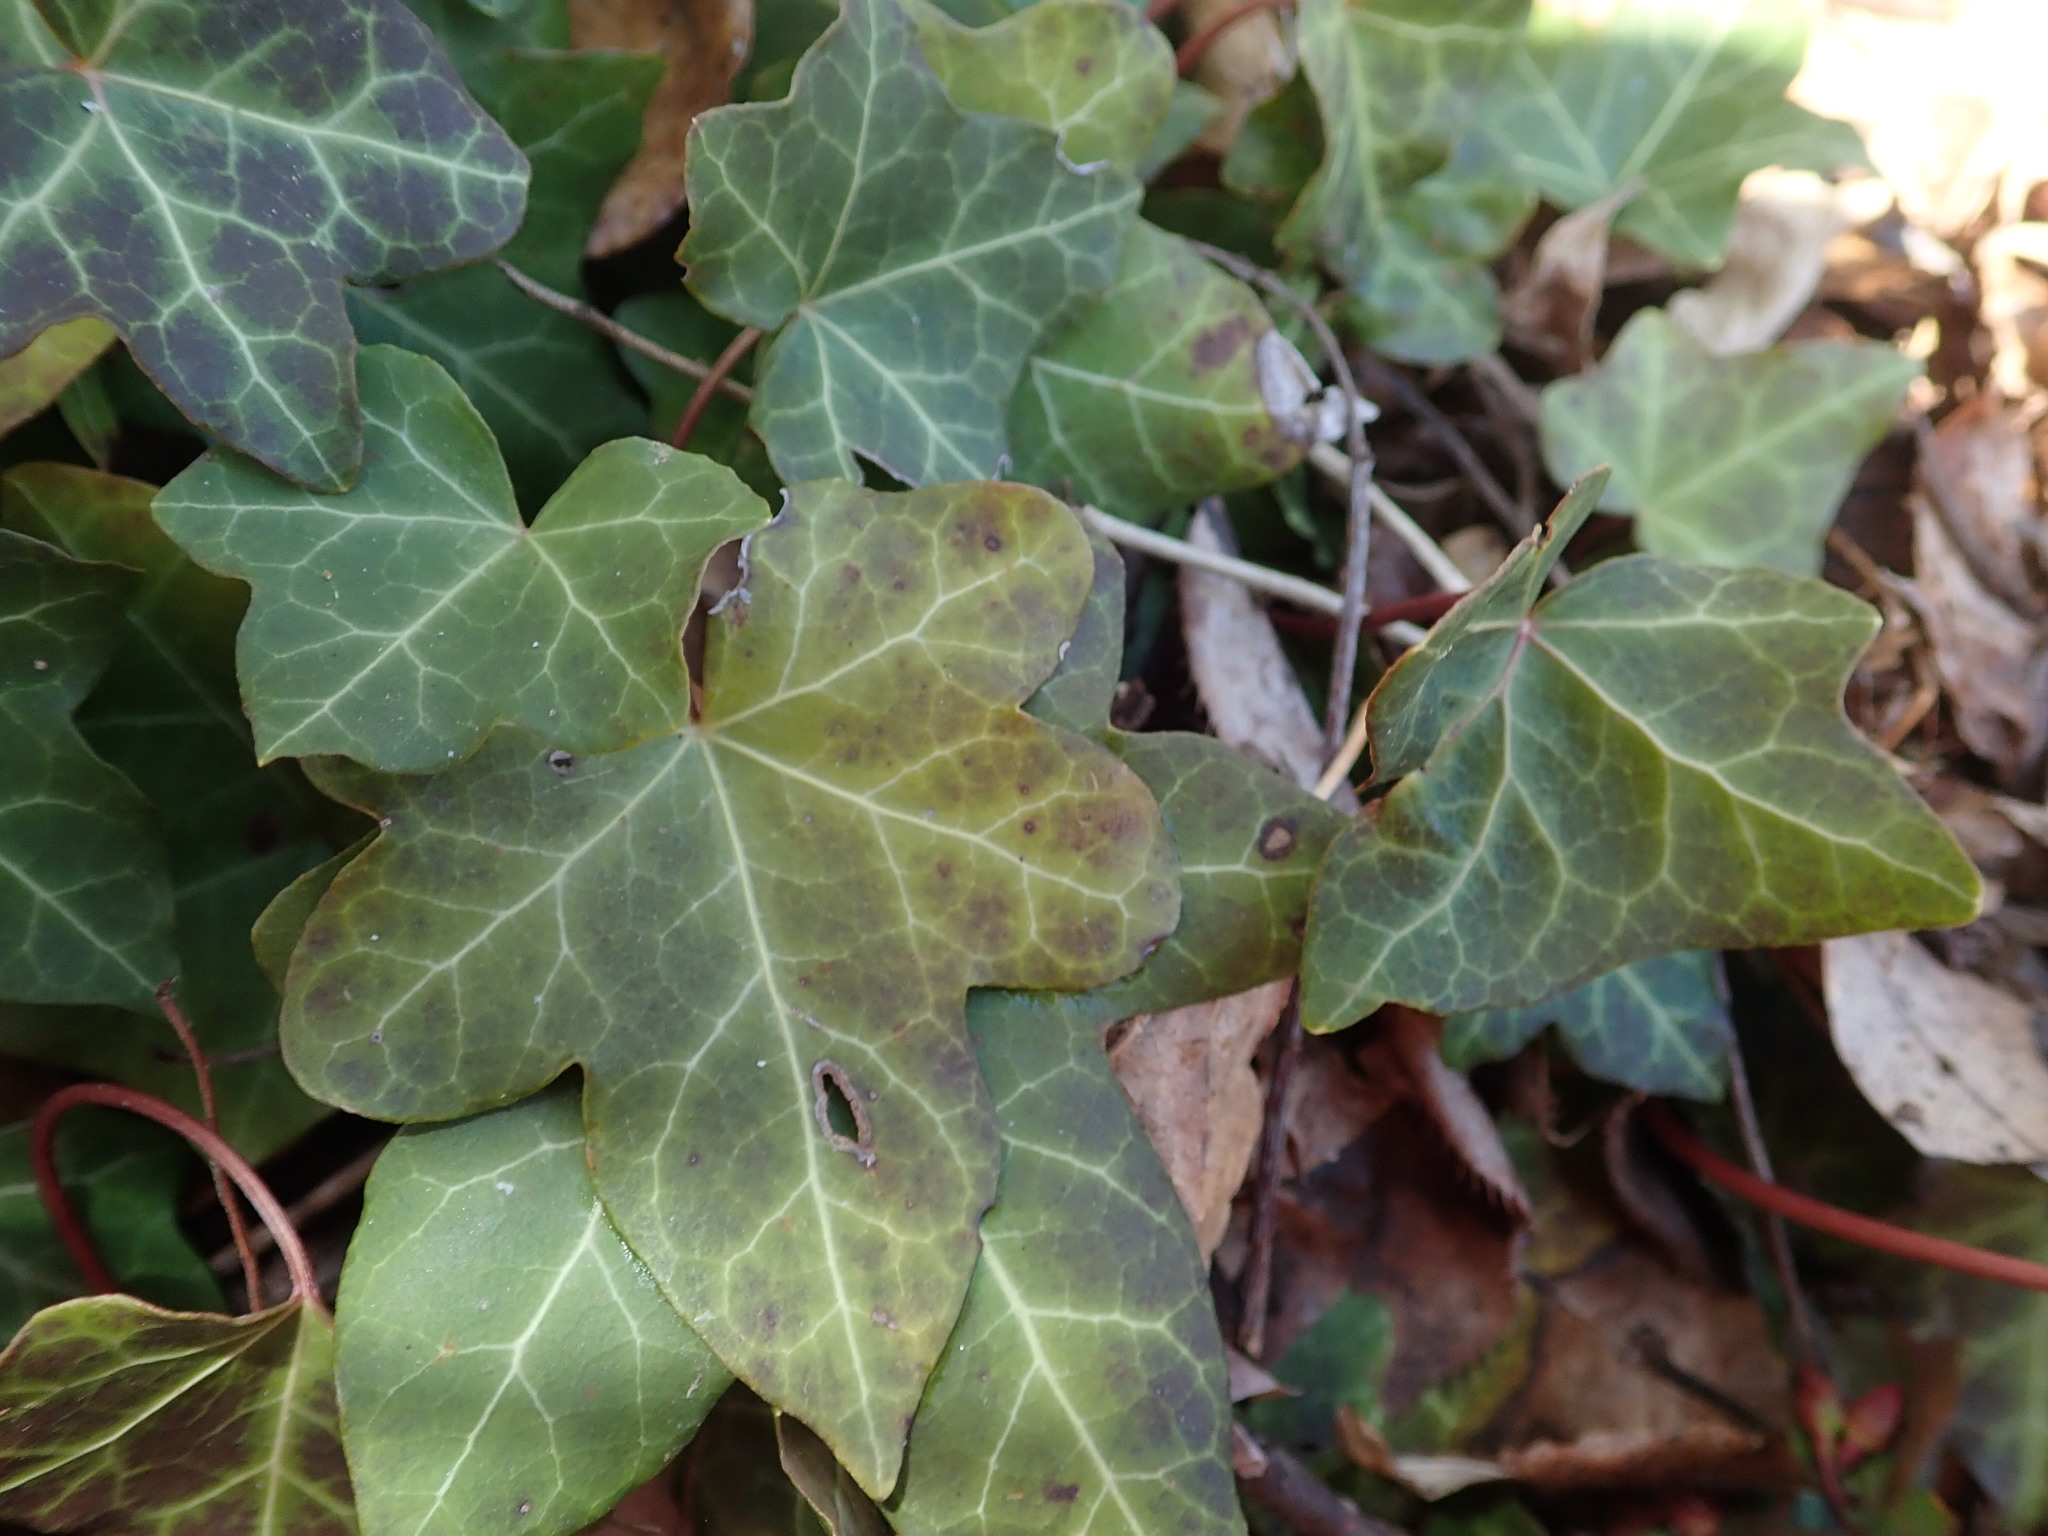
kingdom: Plantae
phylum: Tracheophyta
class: Magnoliopsida
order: Apiales
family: Araliaceae
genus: Hedera
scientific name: Hedera helix
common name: Ivy
